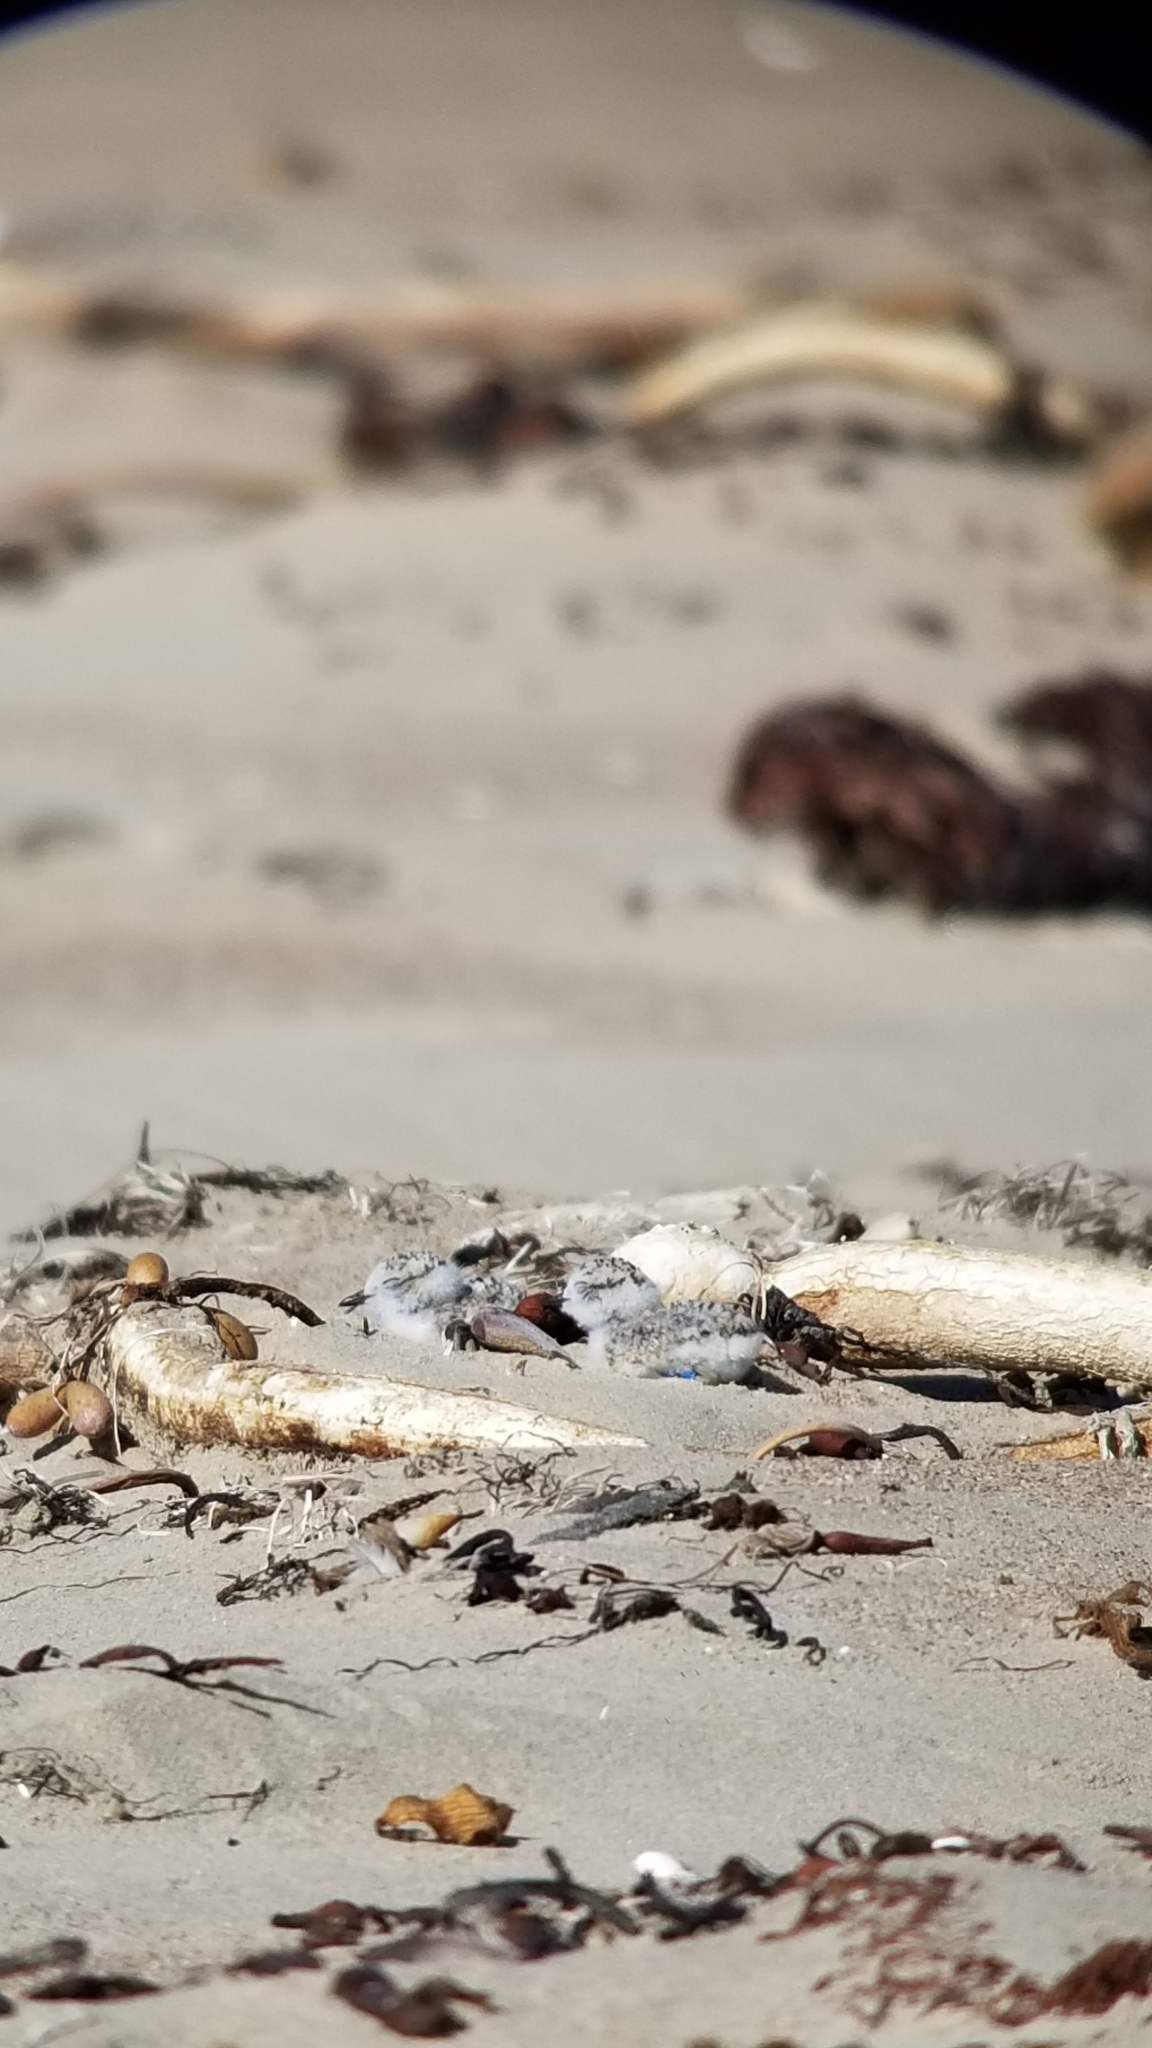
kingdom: Animalia
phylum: Chordata
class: Aves
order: Charadriiformes
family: Charadriidae
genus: Anarhynchus
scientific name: Anarhynchus
